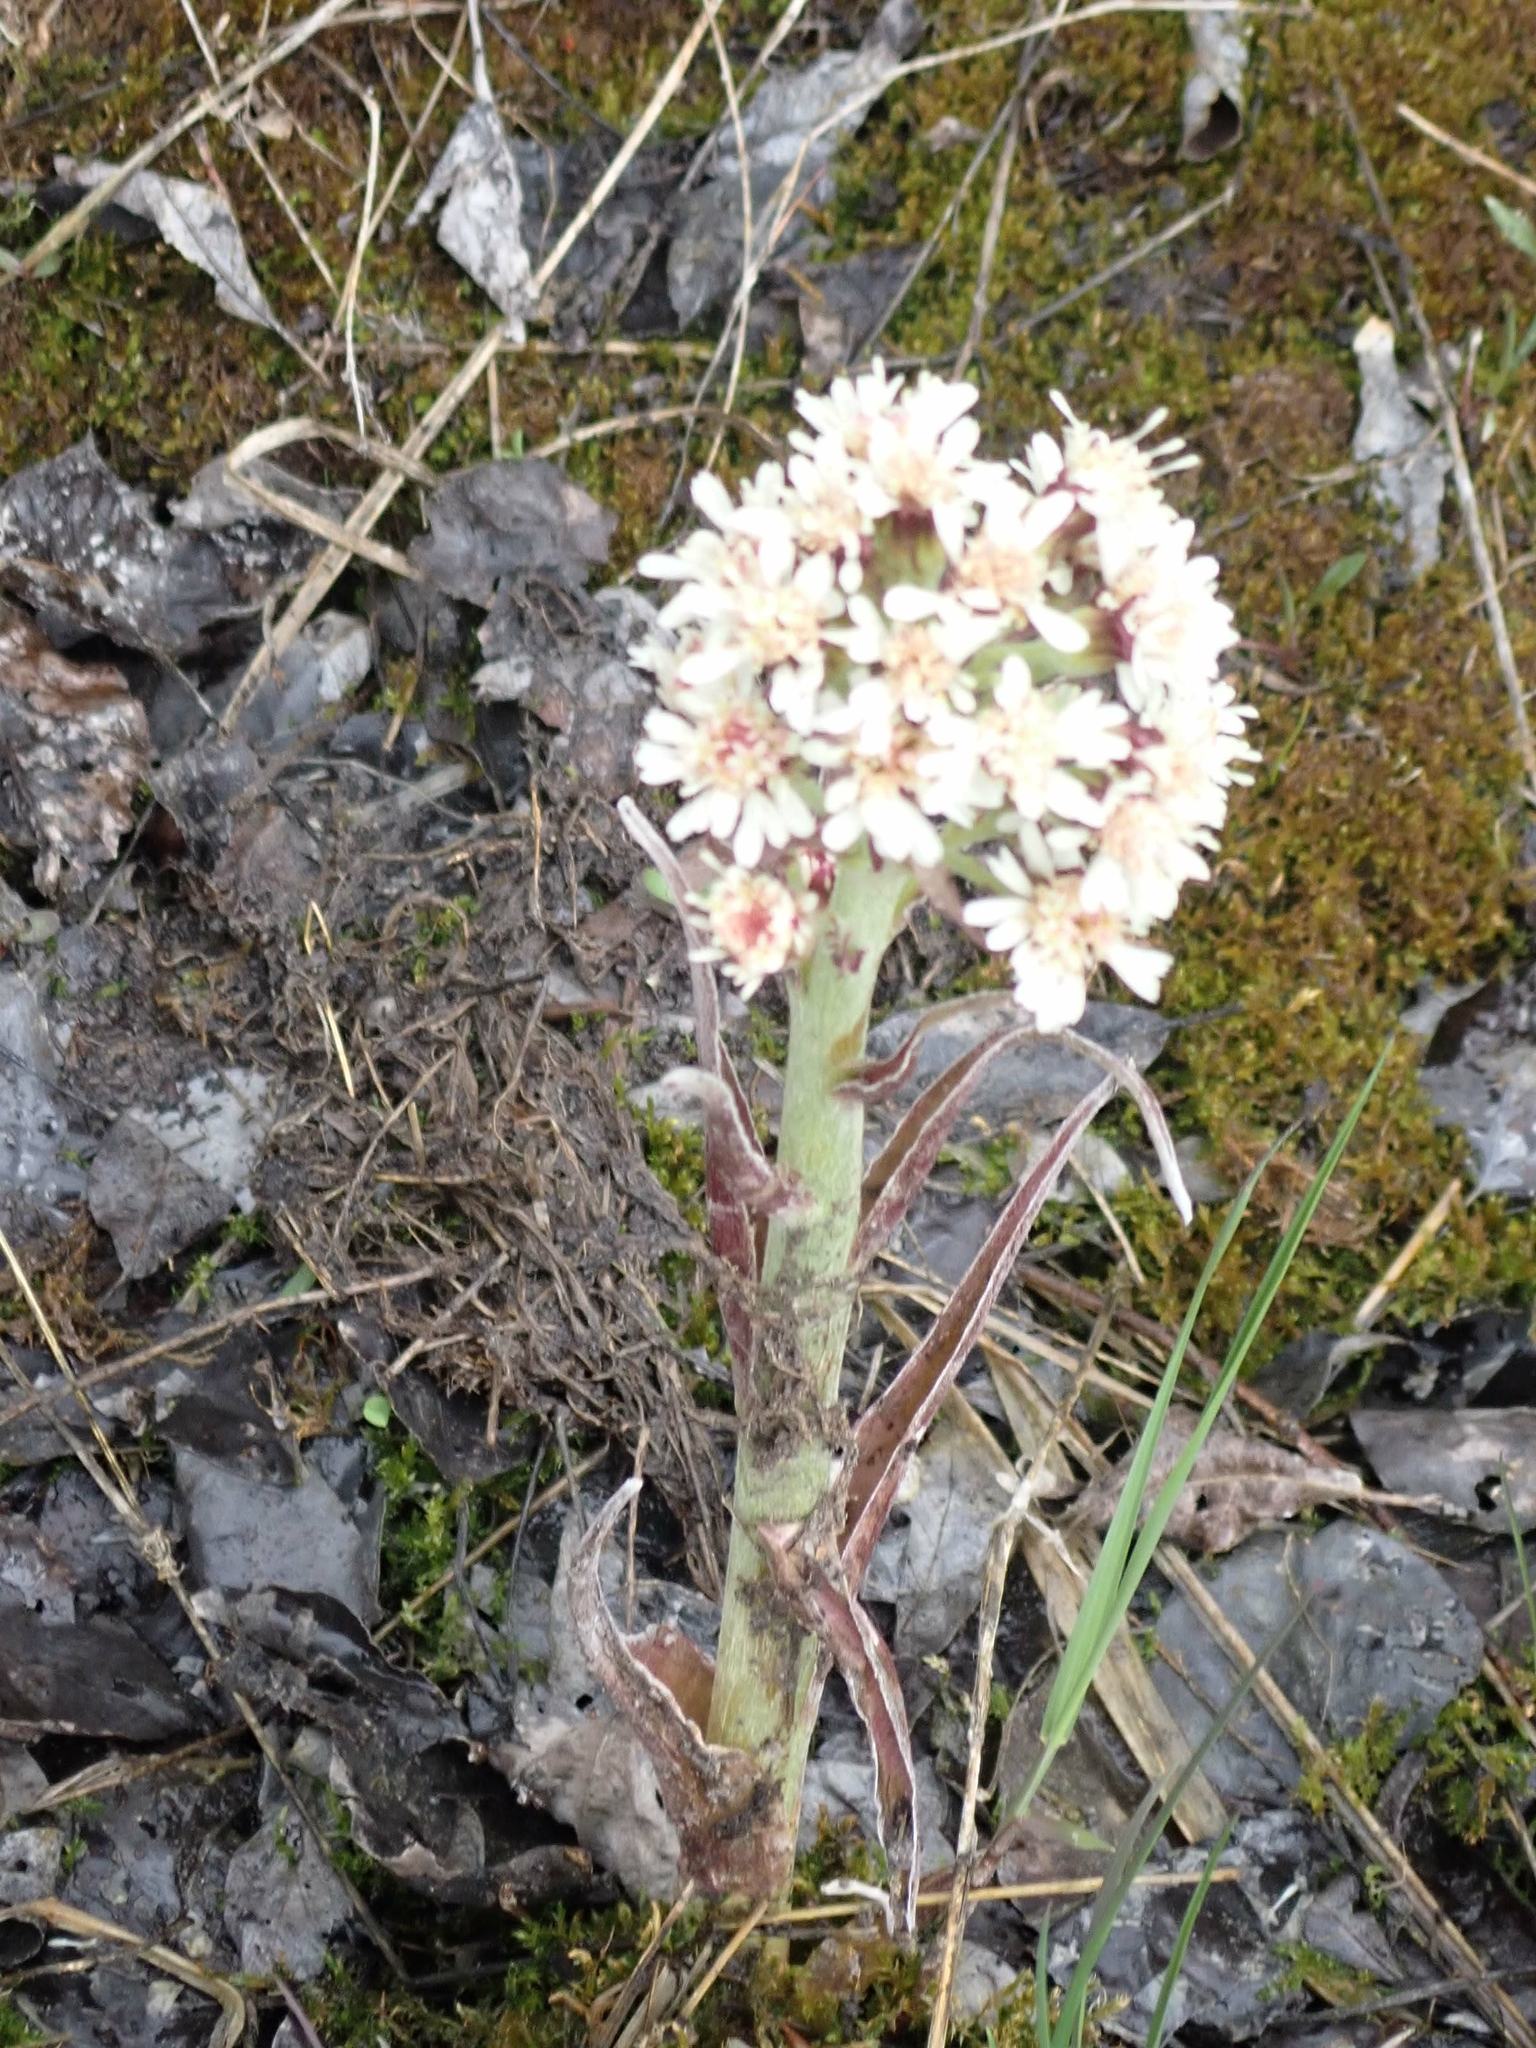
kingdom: Plantae
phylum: Tracheophyta
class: Magnoliopsida
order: Asterales
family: Asteraceae
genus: Petasites
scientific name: Petasites frigidus
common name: Arctic butterbur
